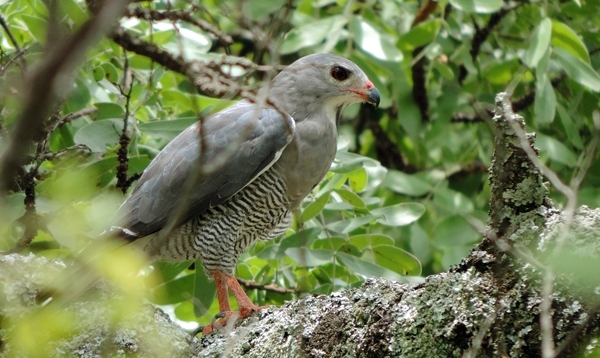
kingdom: Animalia
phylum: Chordata
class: Aves
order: Accipitriformes
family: Accipitridae
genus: Kaupifalco
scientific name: Kaupifalco monogrammicus
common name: Lizard buzzard
